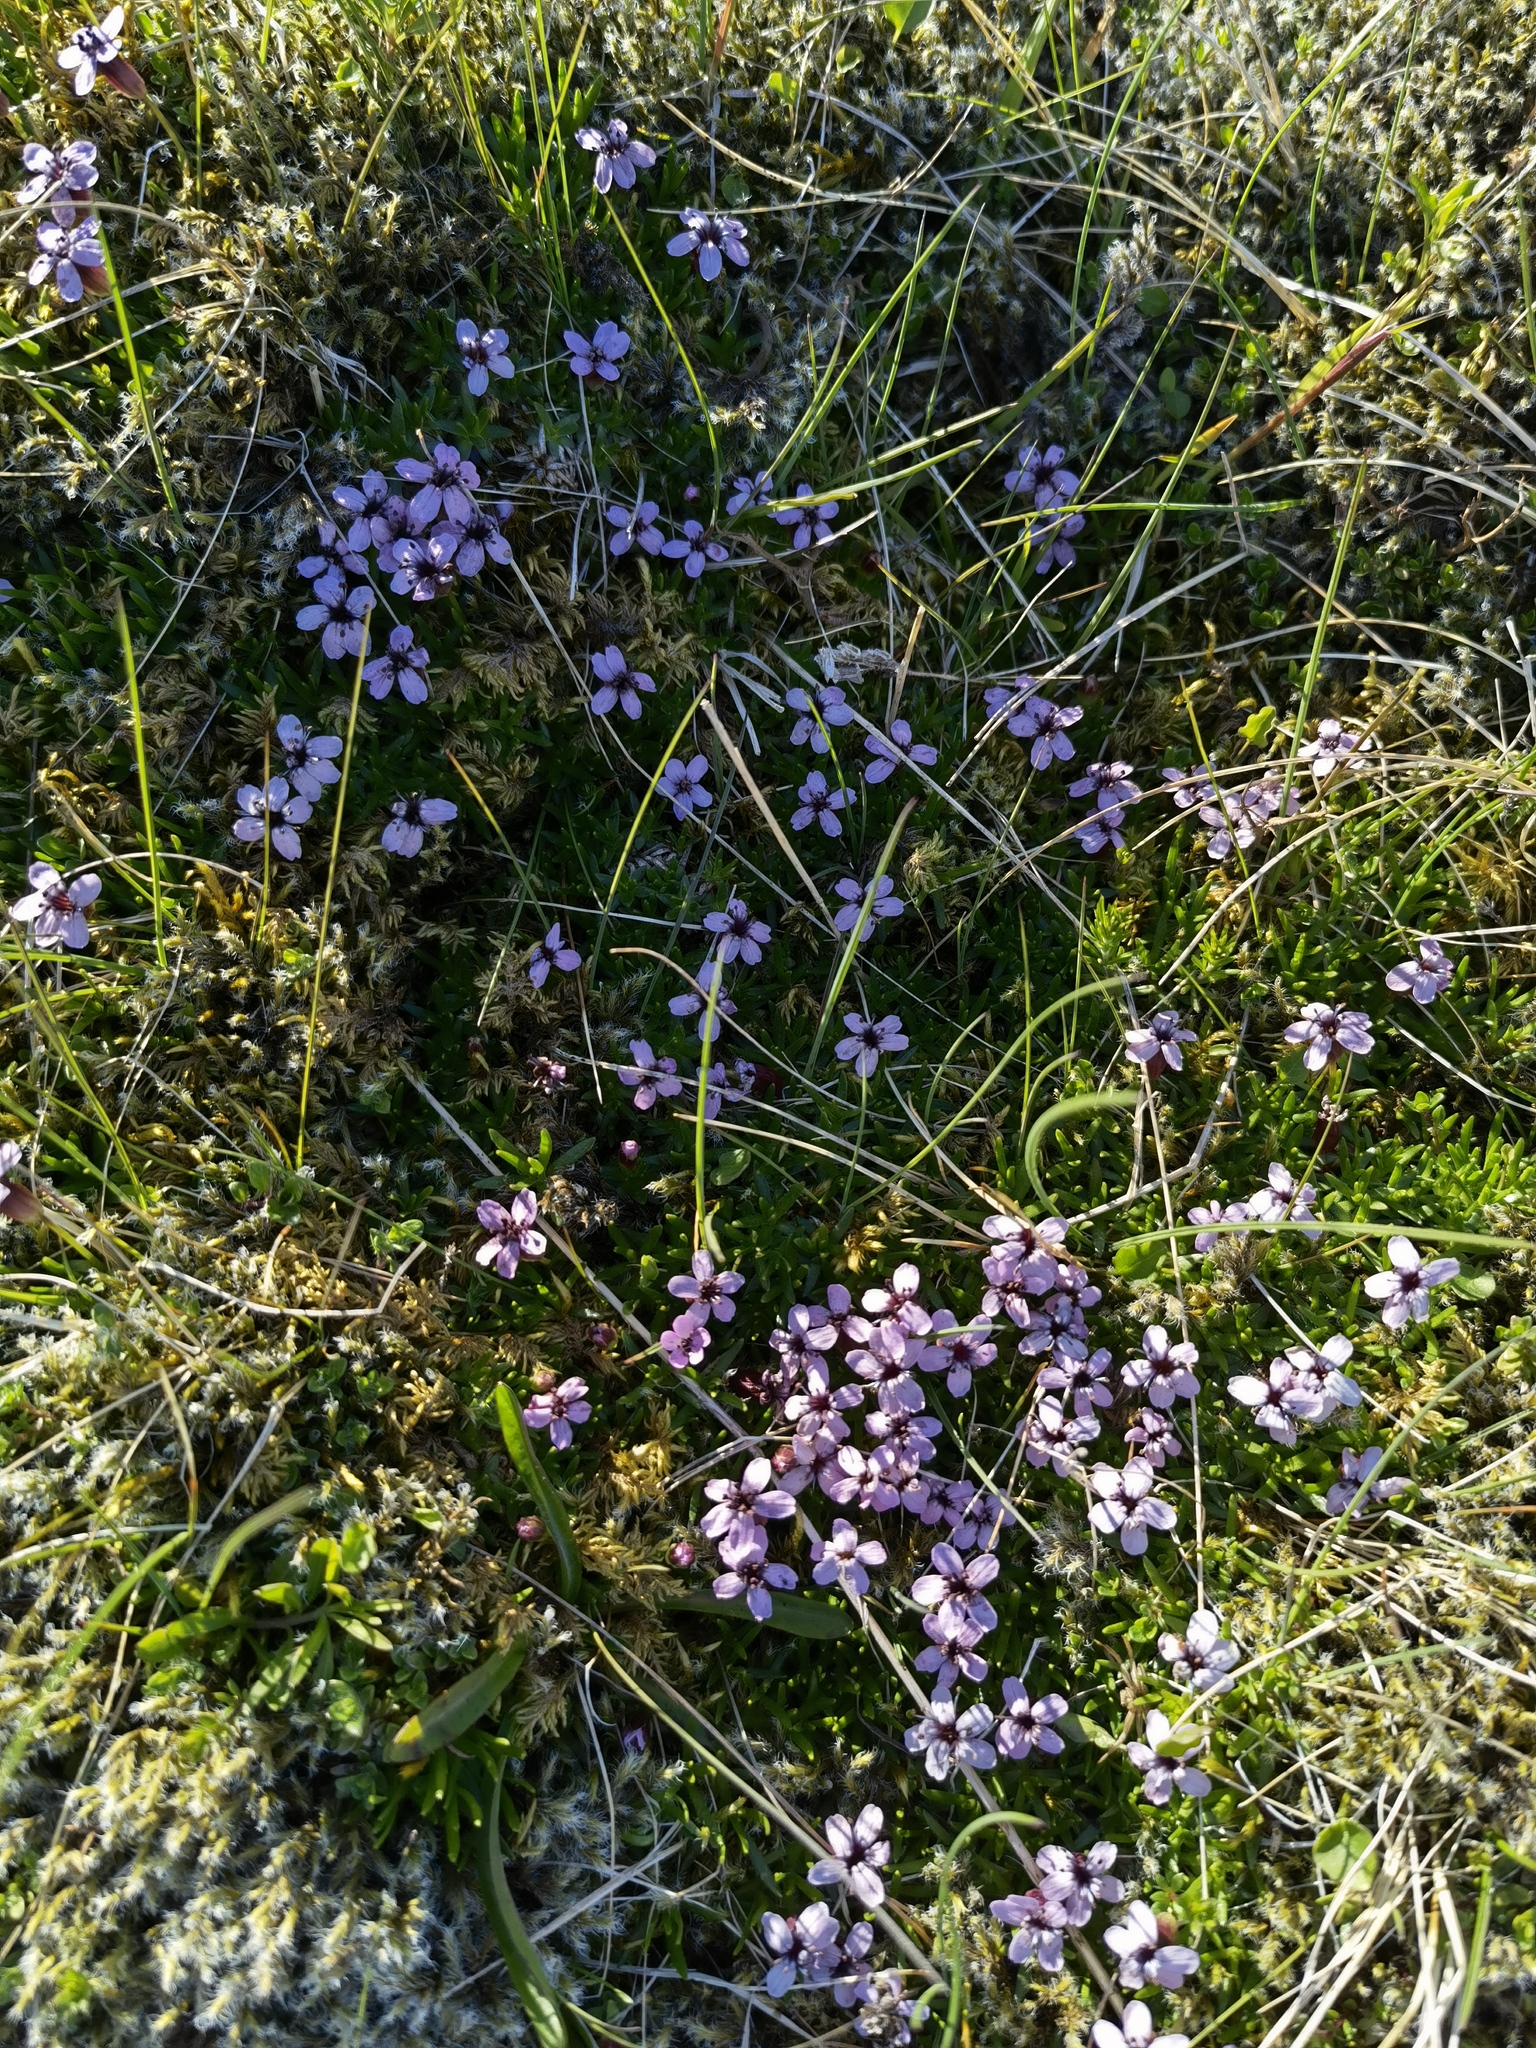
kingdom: Plantae
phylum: Tracheophyta
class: Magnoliopsida
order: Caryophyllales
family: Caryophyllaceae
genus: Silene
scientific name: Silene acaulis
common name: Moss campion
